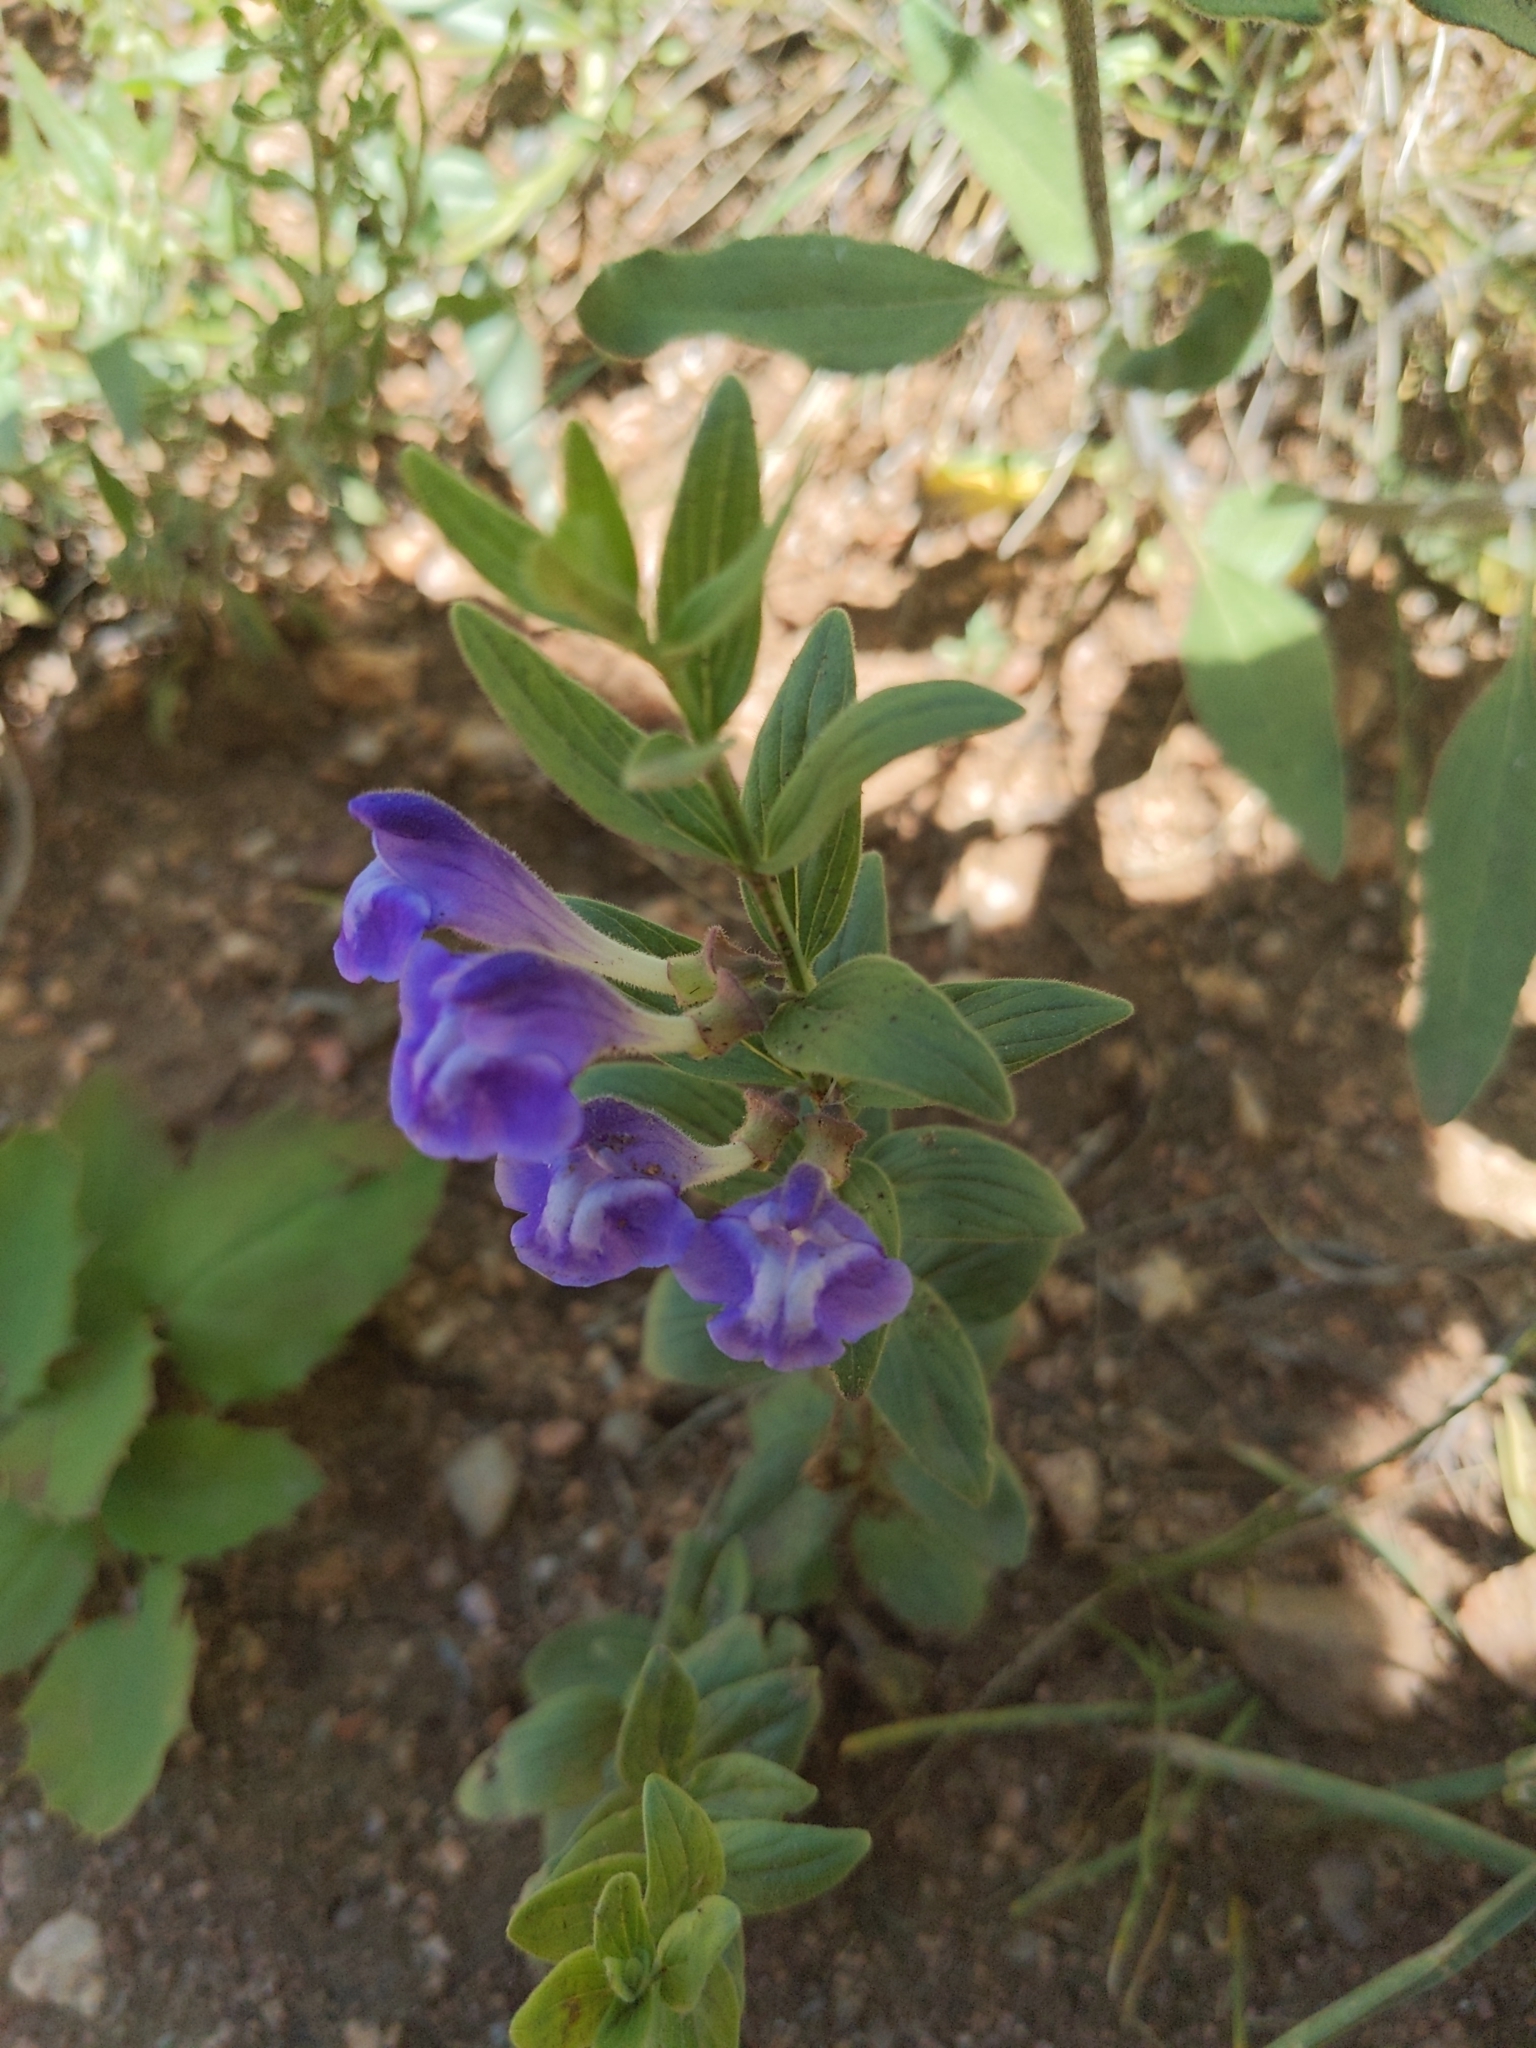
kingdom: Plantae
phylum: Tracheophyta
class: Magnoliopsida
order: Lamiales
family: Lamiaceae
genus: Scutellaria
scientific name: Scutellaria brittonii
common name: Britton's skullcap
